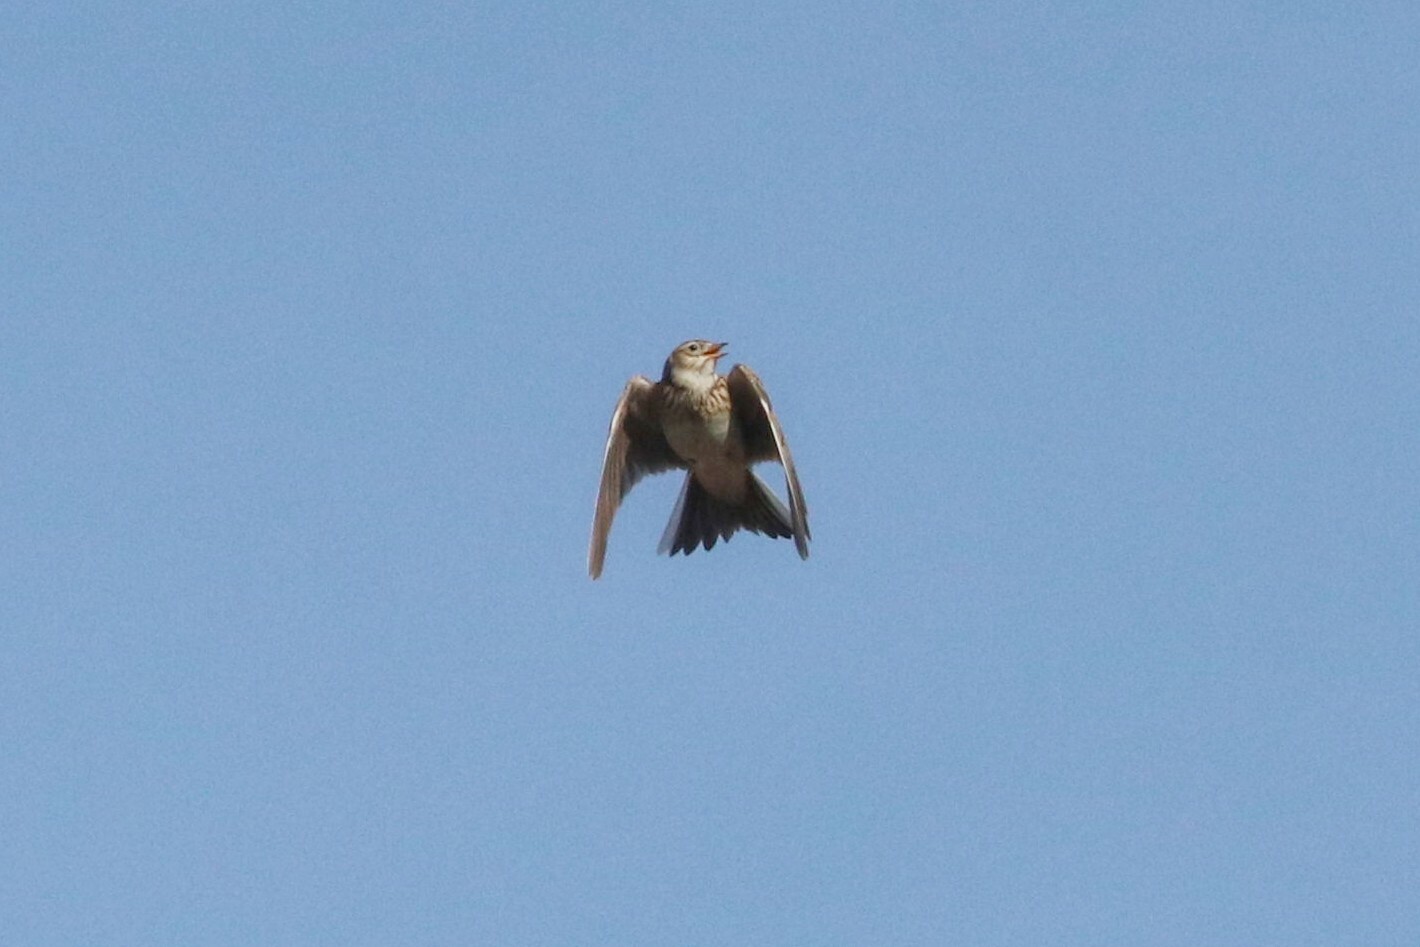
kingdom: Animalia
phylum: Chordata
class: Aves
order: Passeriformes
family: Alaudidae
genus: Alauda
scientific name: Alauda arvensis
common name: Eurasian skylark
